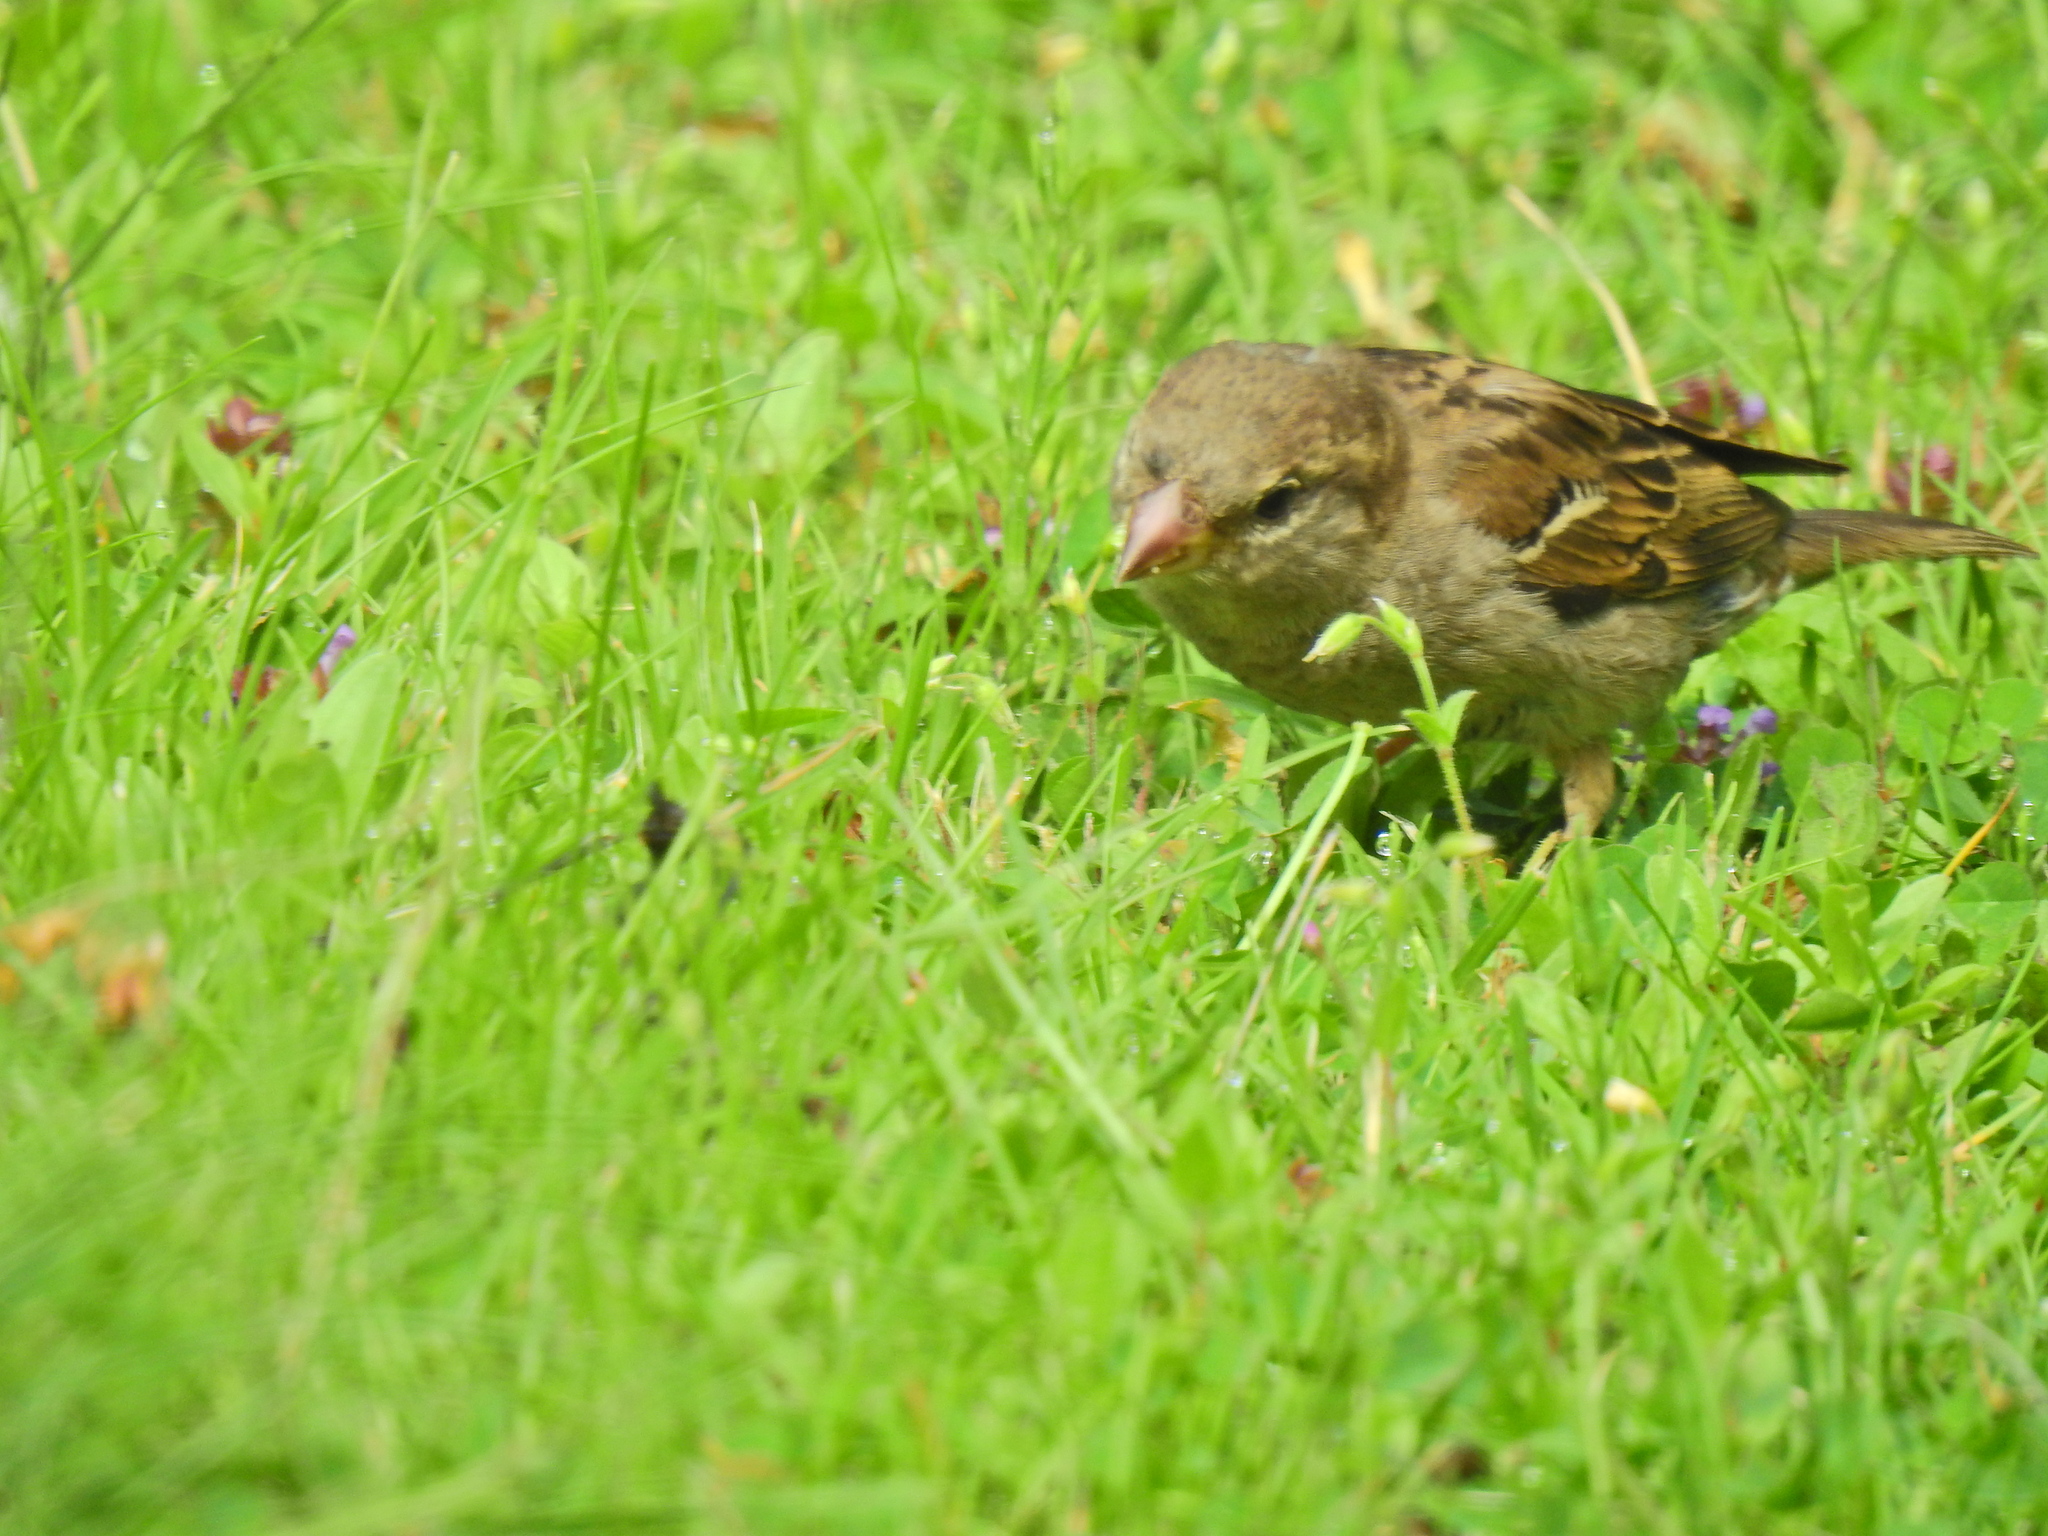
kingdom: Animalia
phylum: Chordata
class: Aves
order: Passeriformes
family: Passeridae
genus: Passer
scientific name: Passer domesticus
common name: House sparrow
